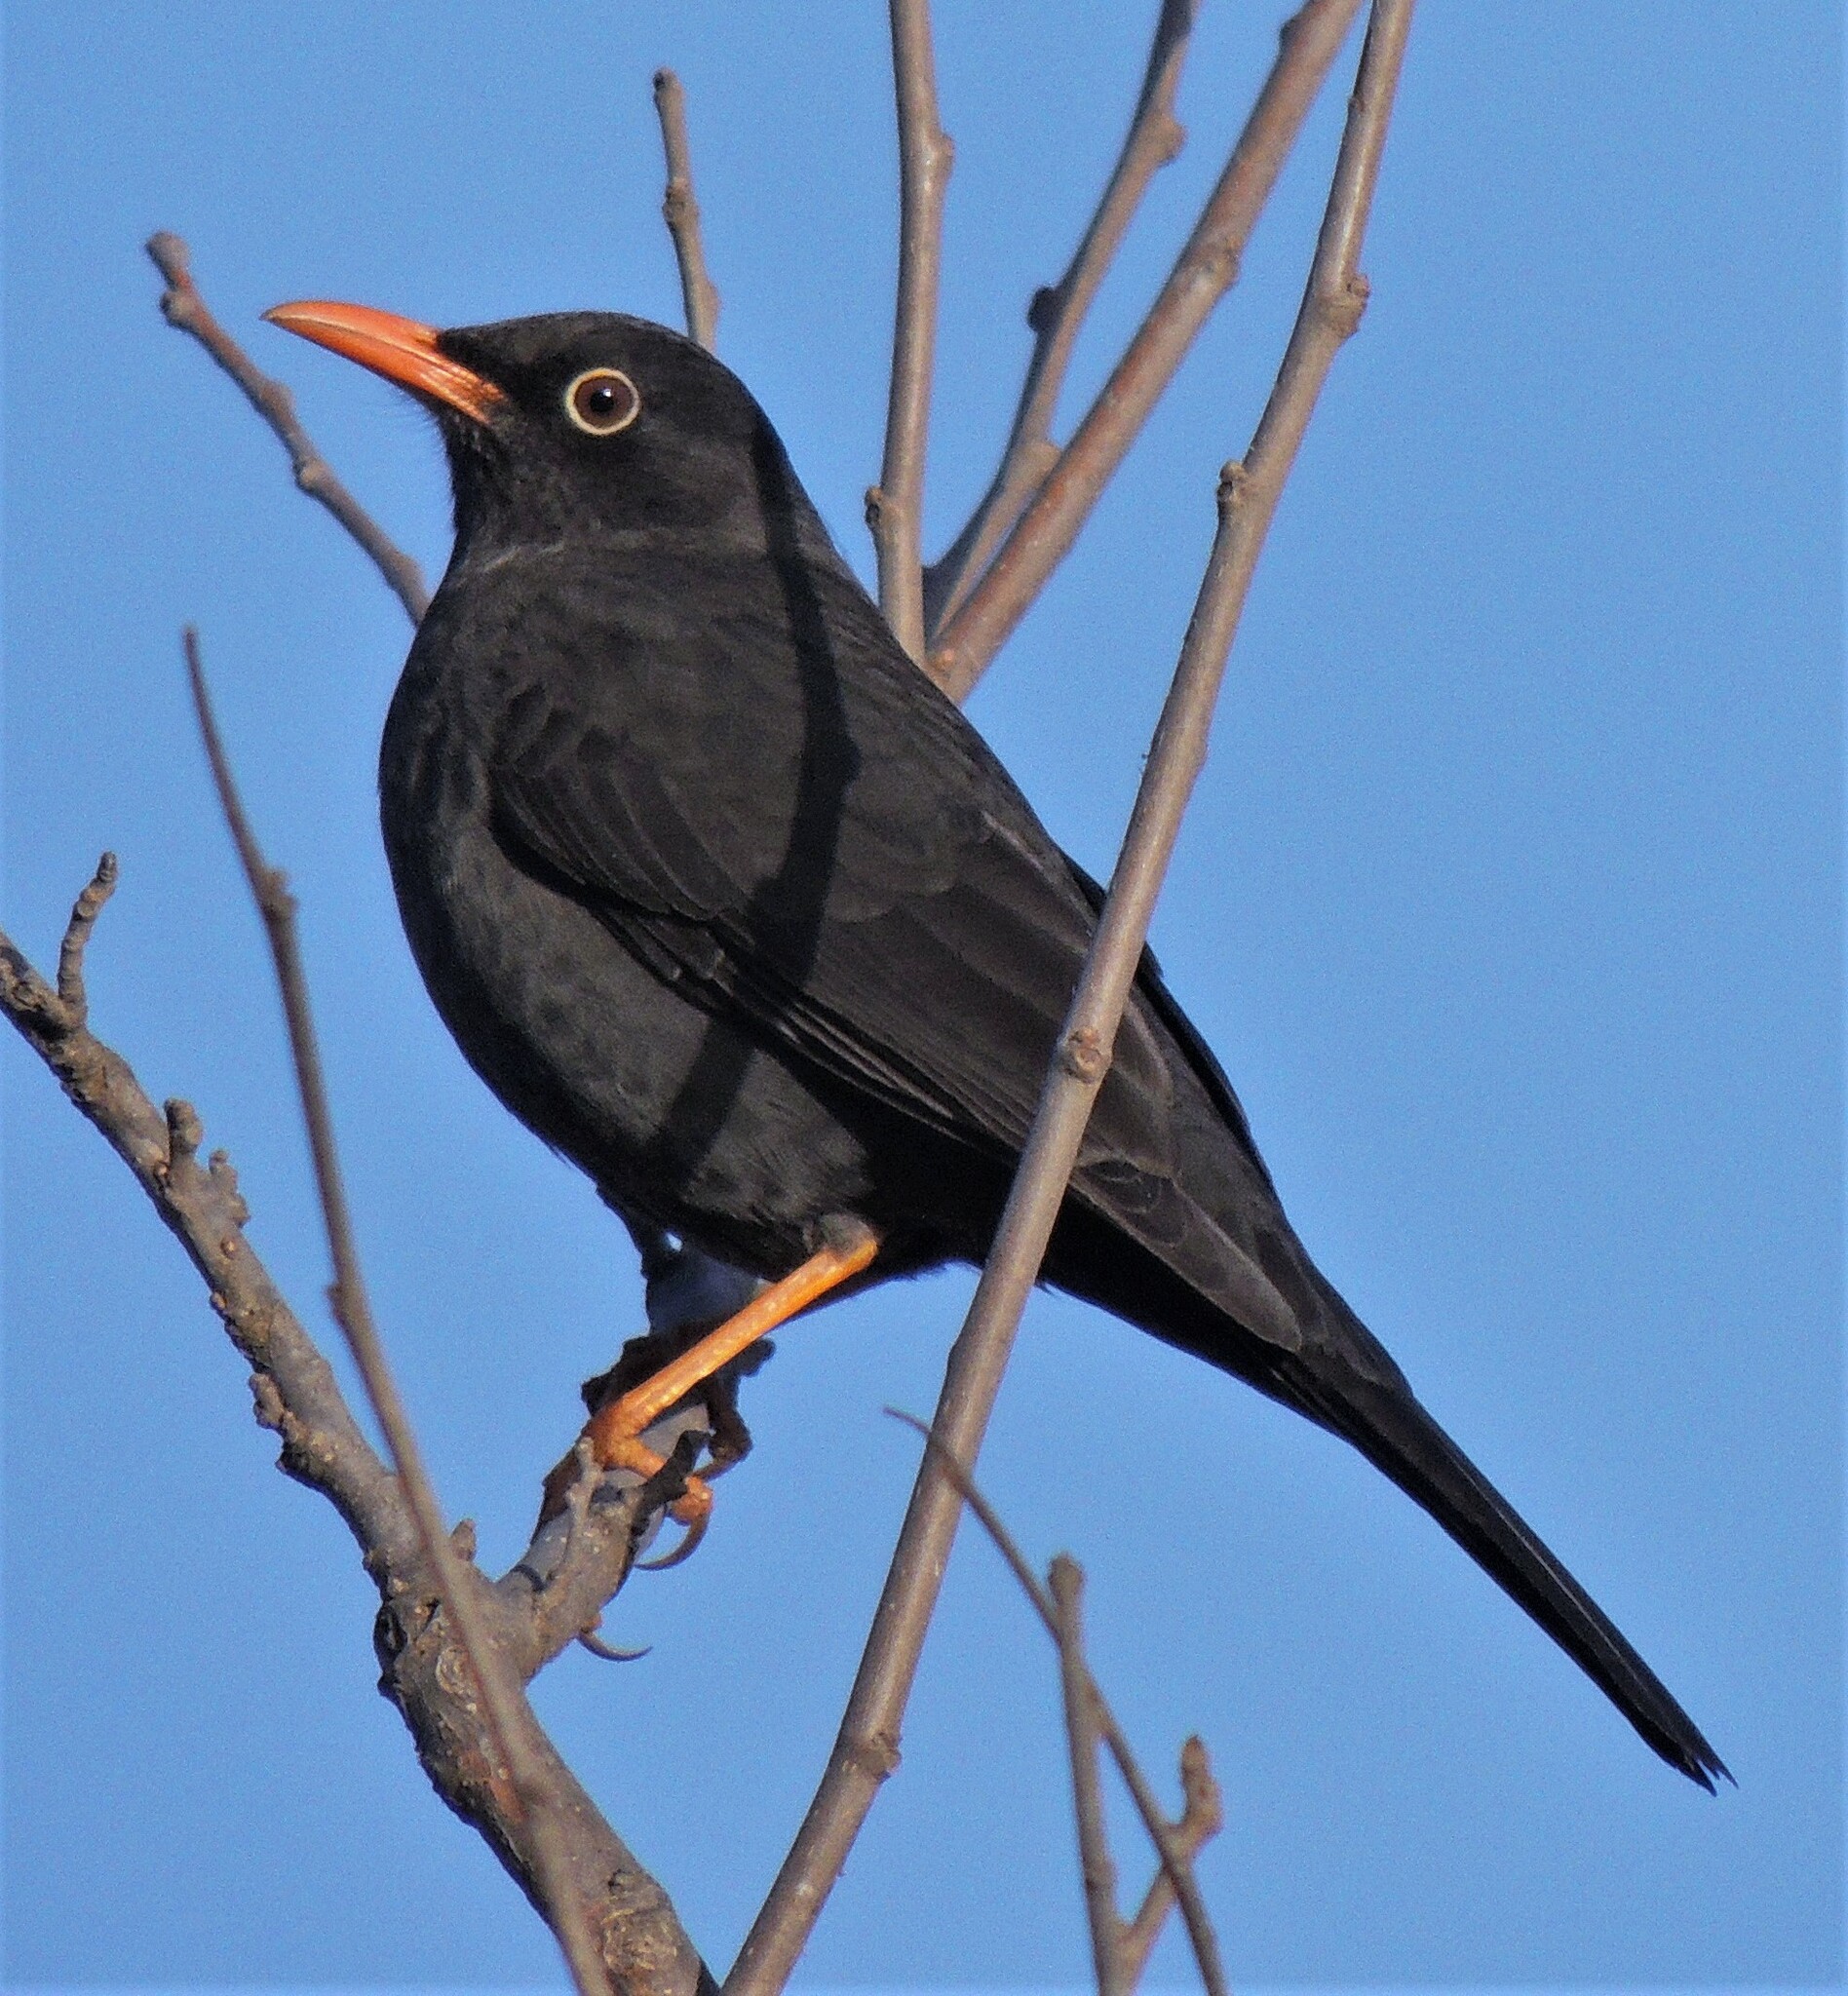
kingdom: Animalia
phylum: Chordata
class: Aves
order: Passeriformes
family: Turdidae
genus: Turdus
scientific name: Turdus chiguanco
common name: Chiguanco thrush
